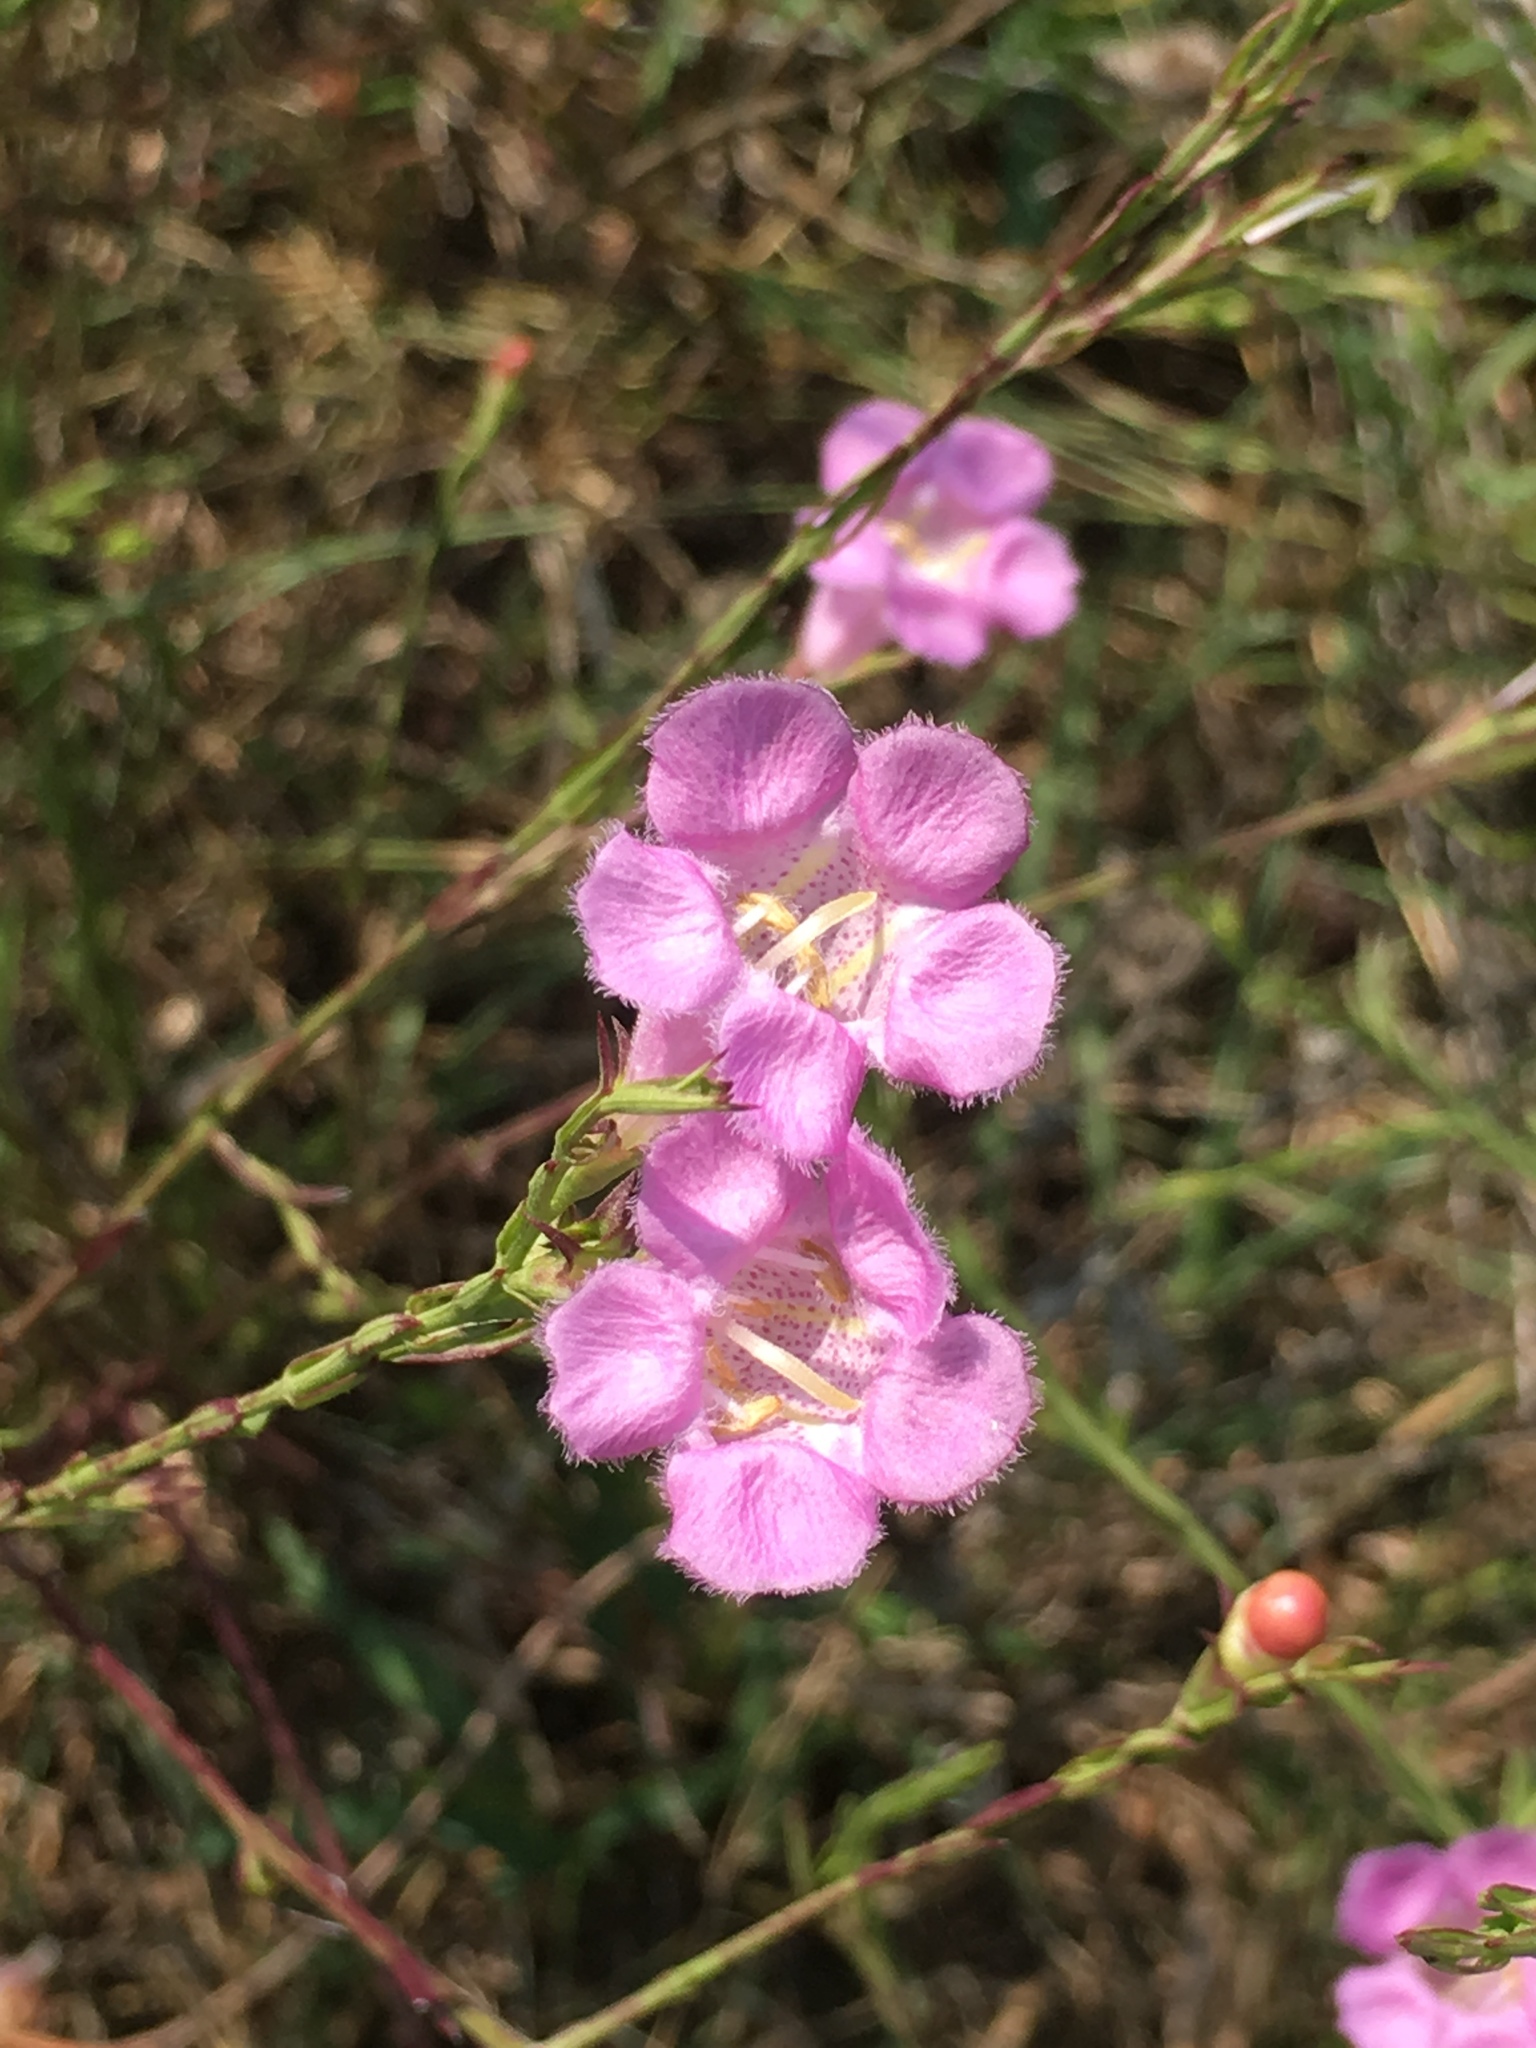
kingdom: Plantae
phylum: Tracheophyta
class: Magnoliopsida
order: Lamiales
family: Orobanchaceae
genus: Agalinis
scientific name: Agalinis heterophylla
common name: Prairie agalinis
